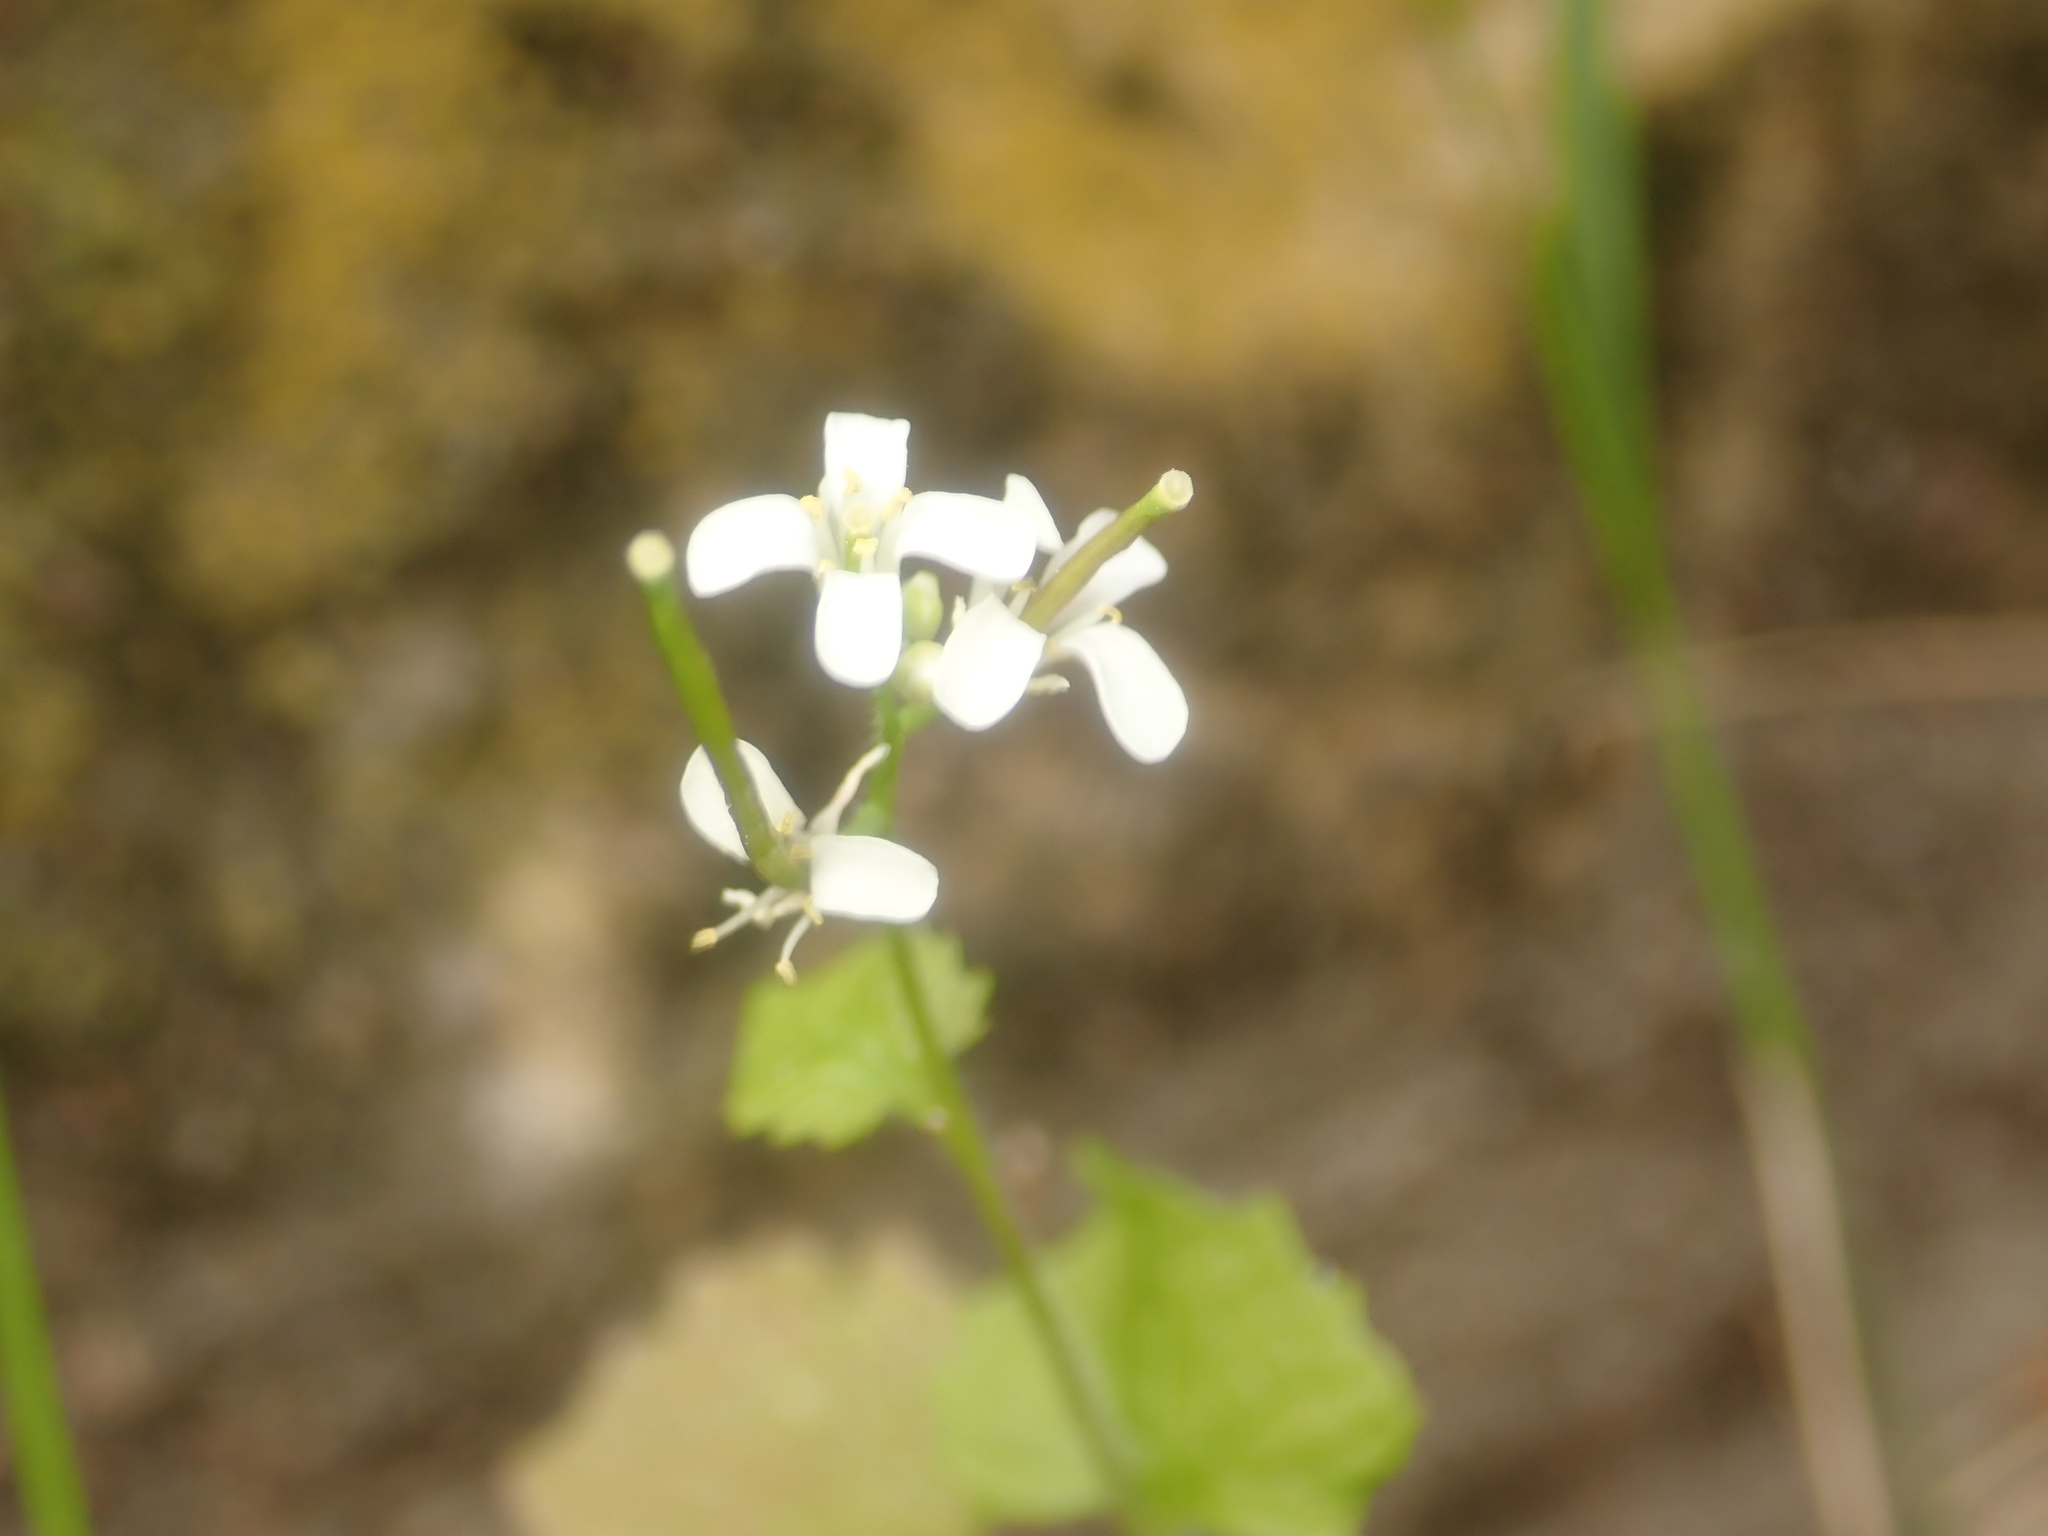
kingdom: Plantae
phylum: Tracheophyta
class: Magnoliopsida
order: Brassicales
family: Brassicaceae
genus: Alliaria
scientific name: Alliaria petiolata
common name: Garlic mustard
